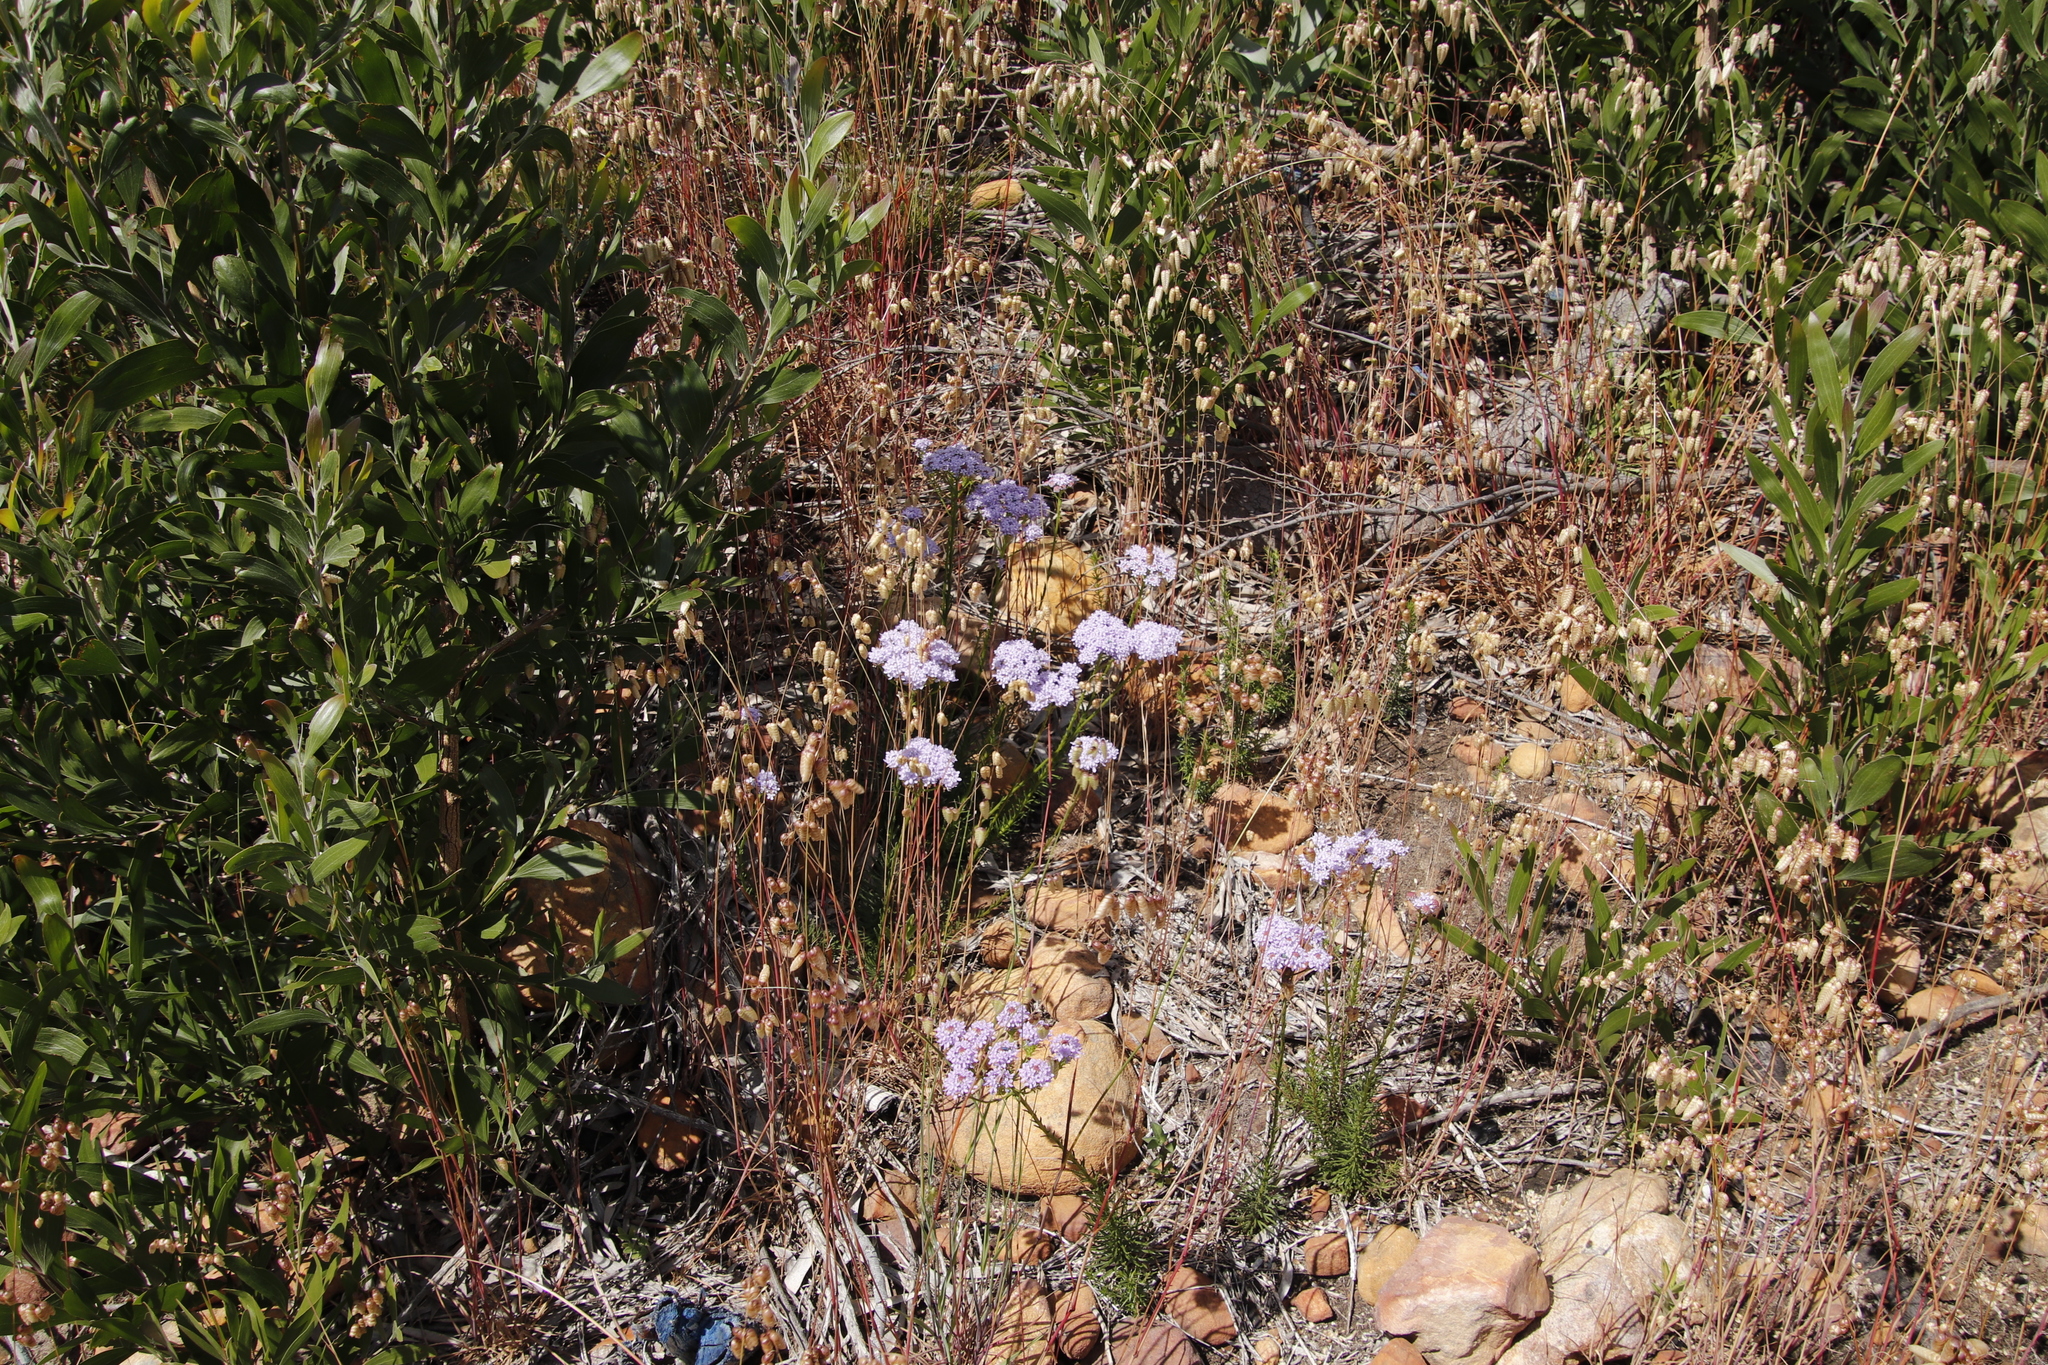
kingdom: Plantae
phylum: Tracheophyta
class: Magnoliopsida
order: Lamiales
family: Scrophulariaceae
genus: Pseudoselago
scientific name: Pseudoselago spuria
